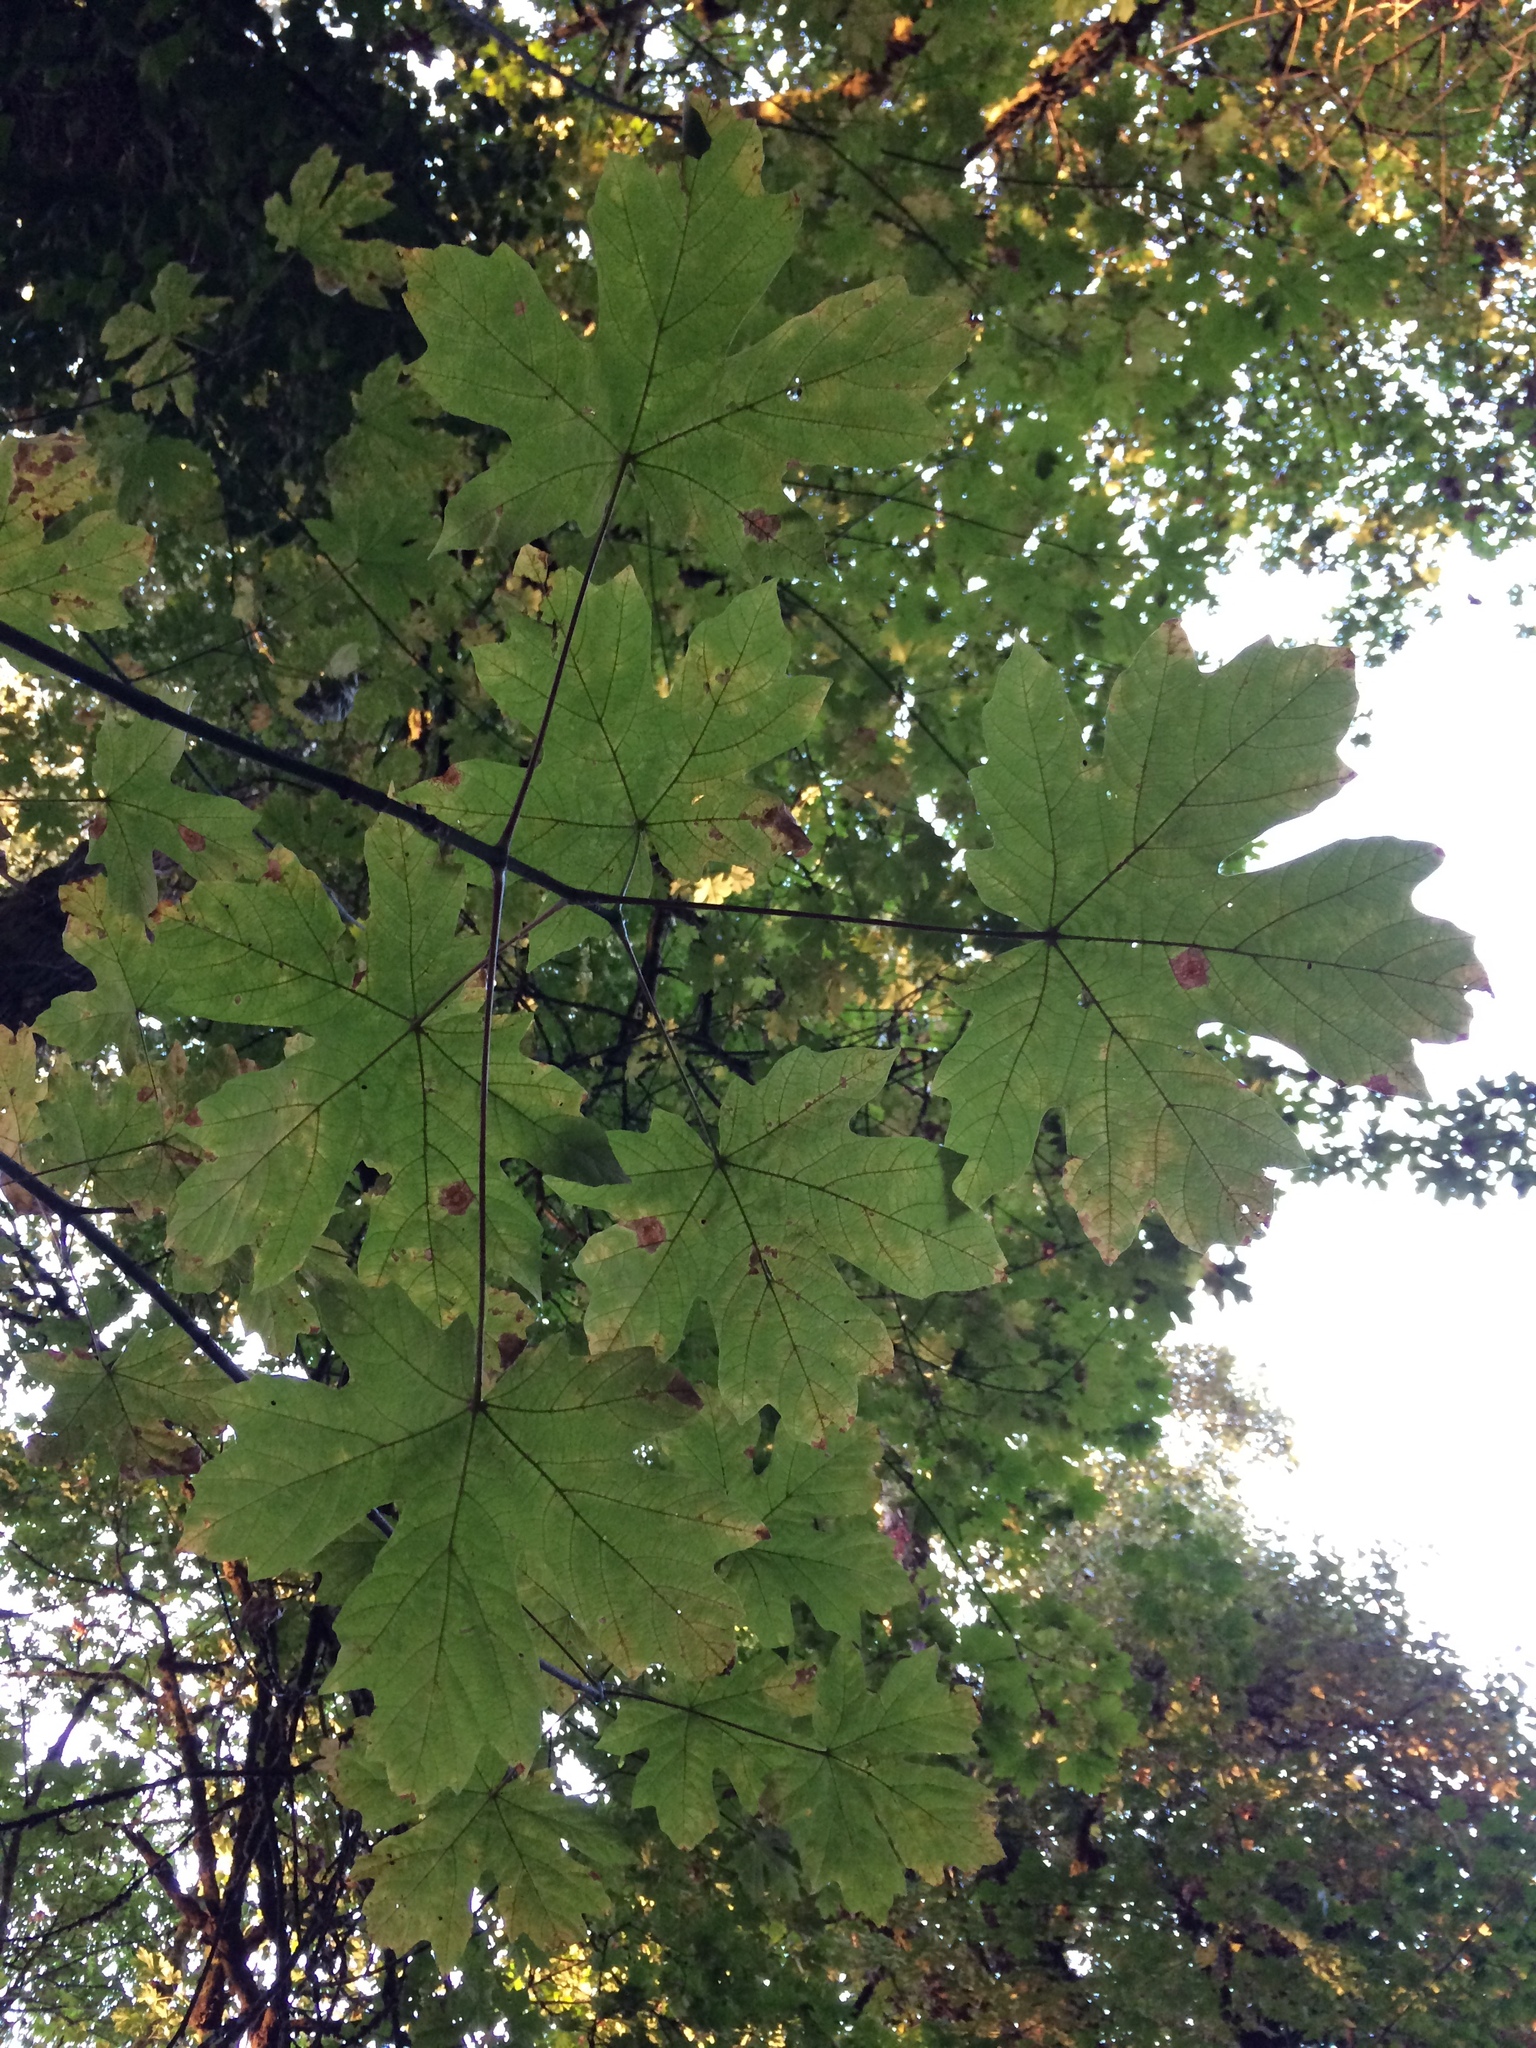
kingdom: Plantae
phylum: Tracheophyta
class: Magnoliopsida
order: Sapindales
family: Sapindaceae
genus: Acer
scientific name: Acer macrophyllum
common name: Oregon maple
